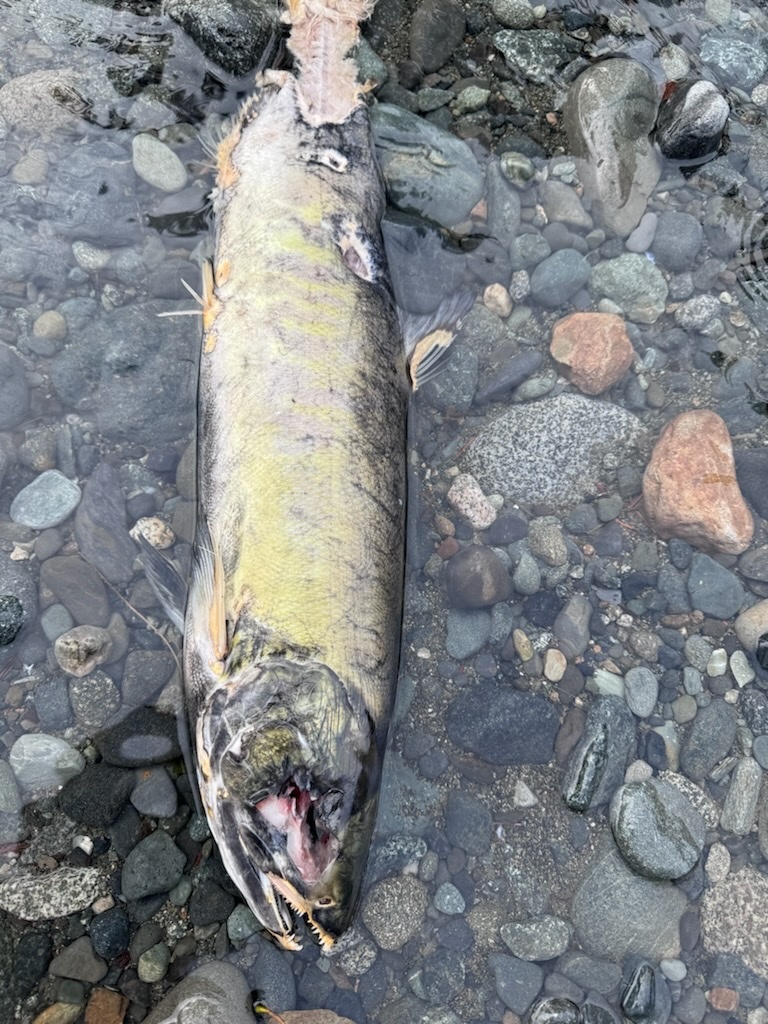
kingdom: Animalia
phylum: Chordata
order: Salmoniformes
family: Salmonidae
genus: Oncorhynchus
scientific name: Oncorhynchus keta
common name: Chum salmon
